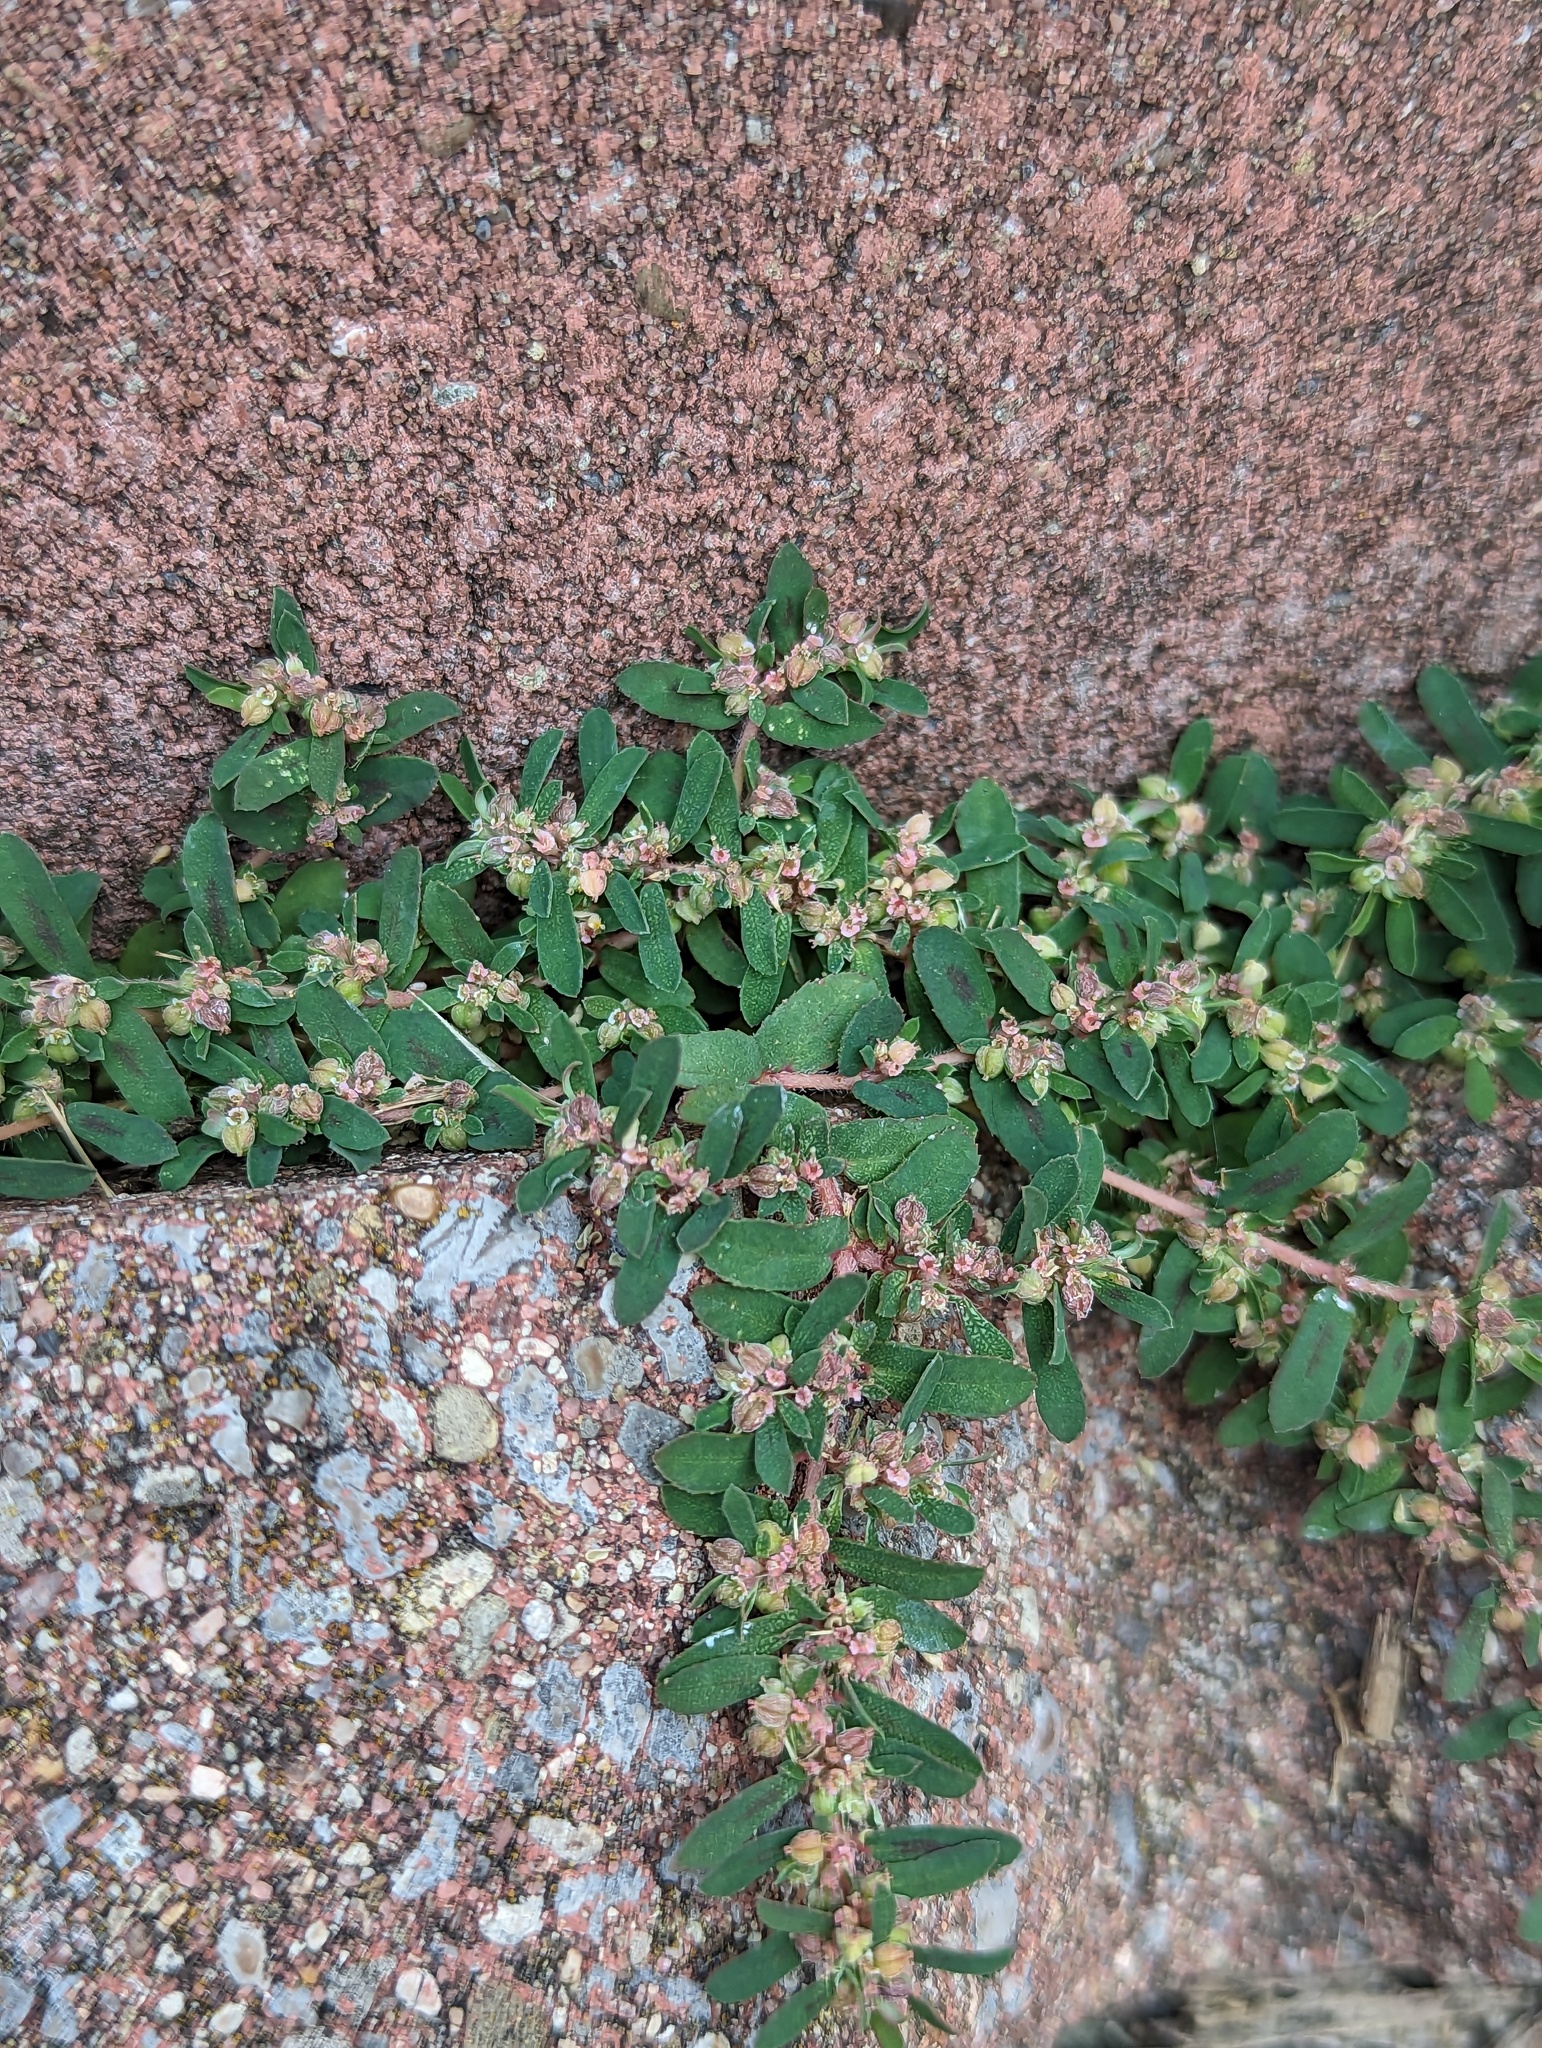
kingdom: Plantae
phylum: Tracheophyta
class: Magnoliopsida
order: Malpighiales
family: Euphorbiaceae
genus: Euphorbia
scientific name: Euphorbia maculata
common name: Spotted spurge
